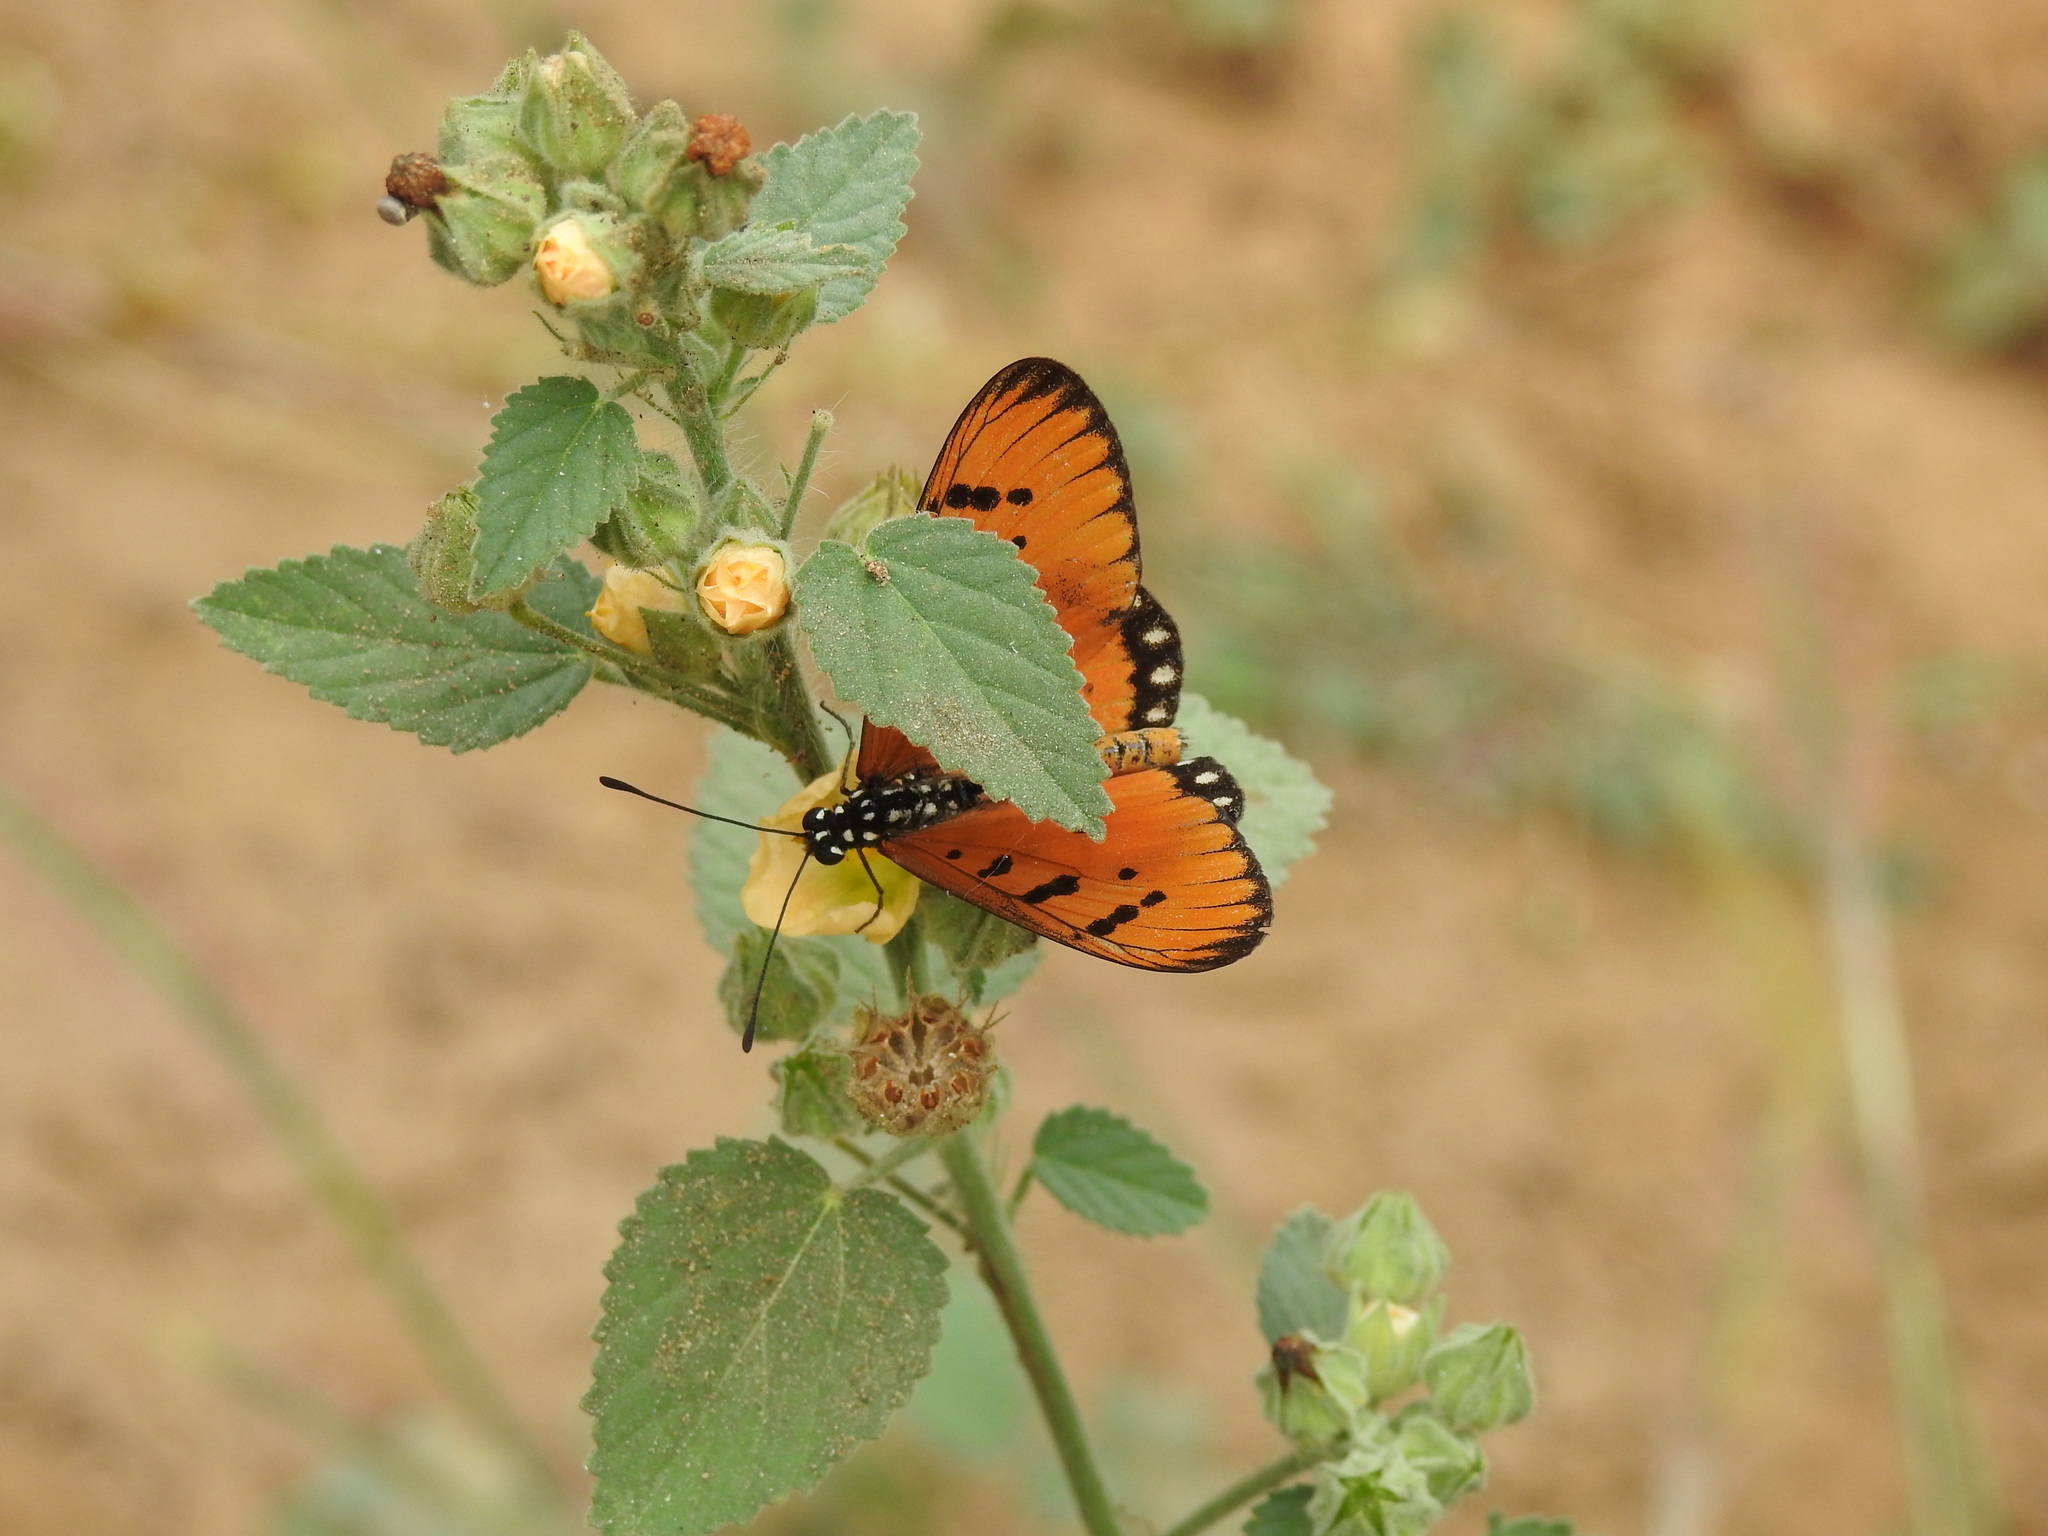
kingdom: Animalia
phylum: Arthropoda
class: Insecta
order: Lepidoptera
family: Nymphalidae
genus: Acraea
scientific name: Acraea terpsicore
